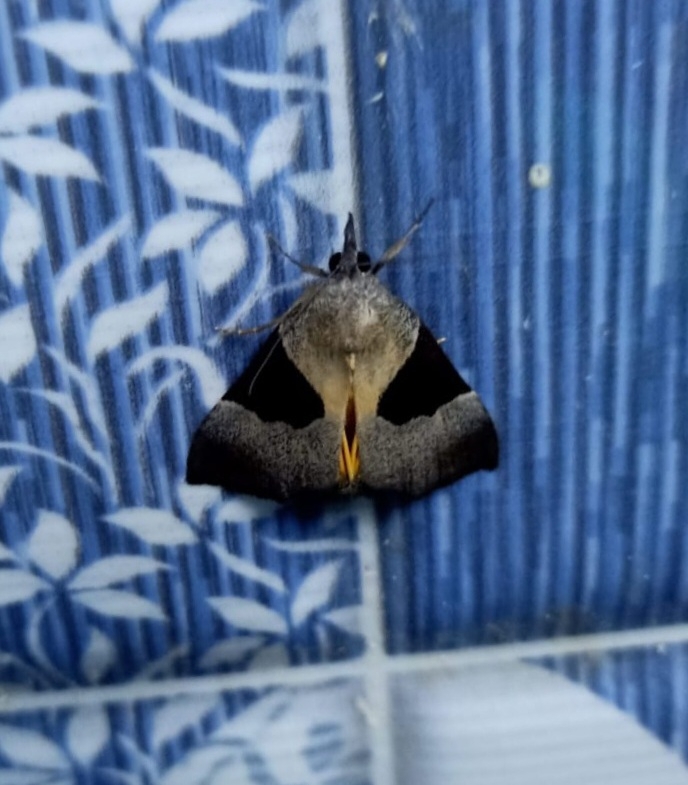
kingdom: Animalia
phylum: Arthropoda
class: Insecta
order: Lepidoptera
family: Erebidae
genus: Hypena
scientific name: Hypena Dichromia sagitta
